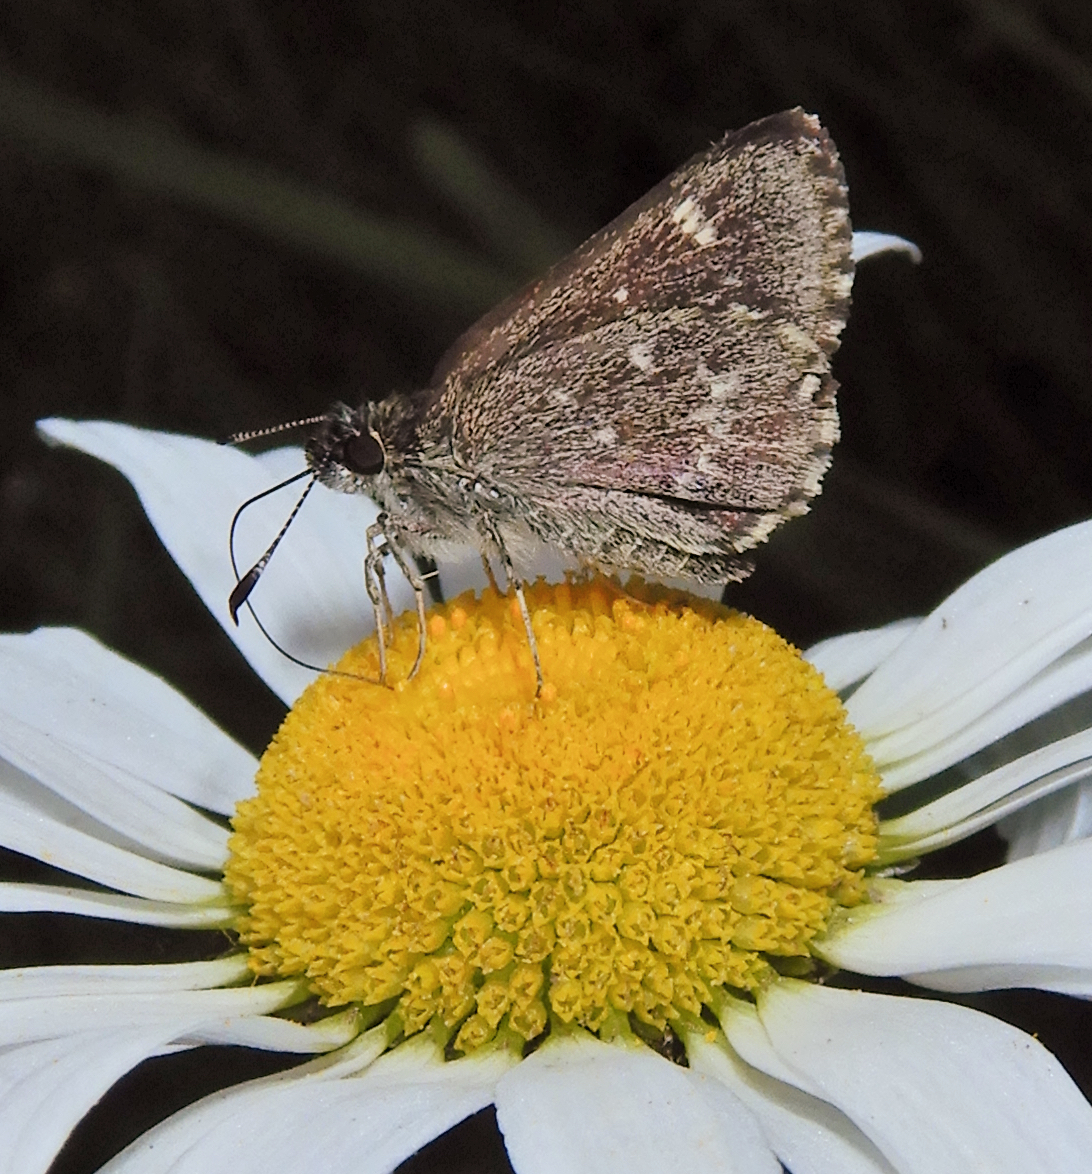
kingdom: Animalia
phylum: Arthropoda
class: Insecta
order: Lepidoptera
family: Hesperiidae
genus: Mastor
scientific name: Mastor hegon
